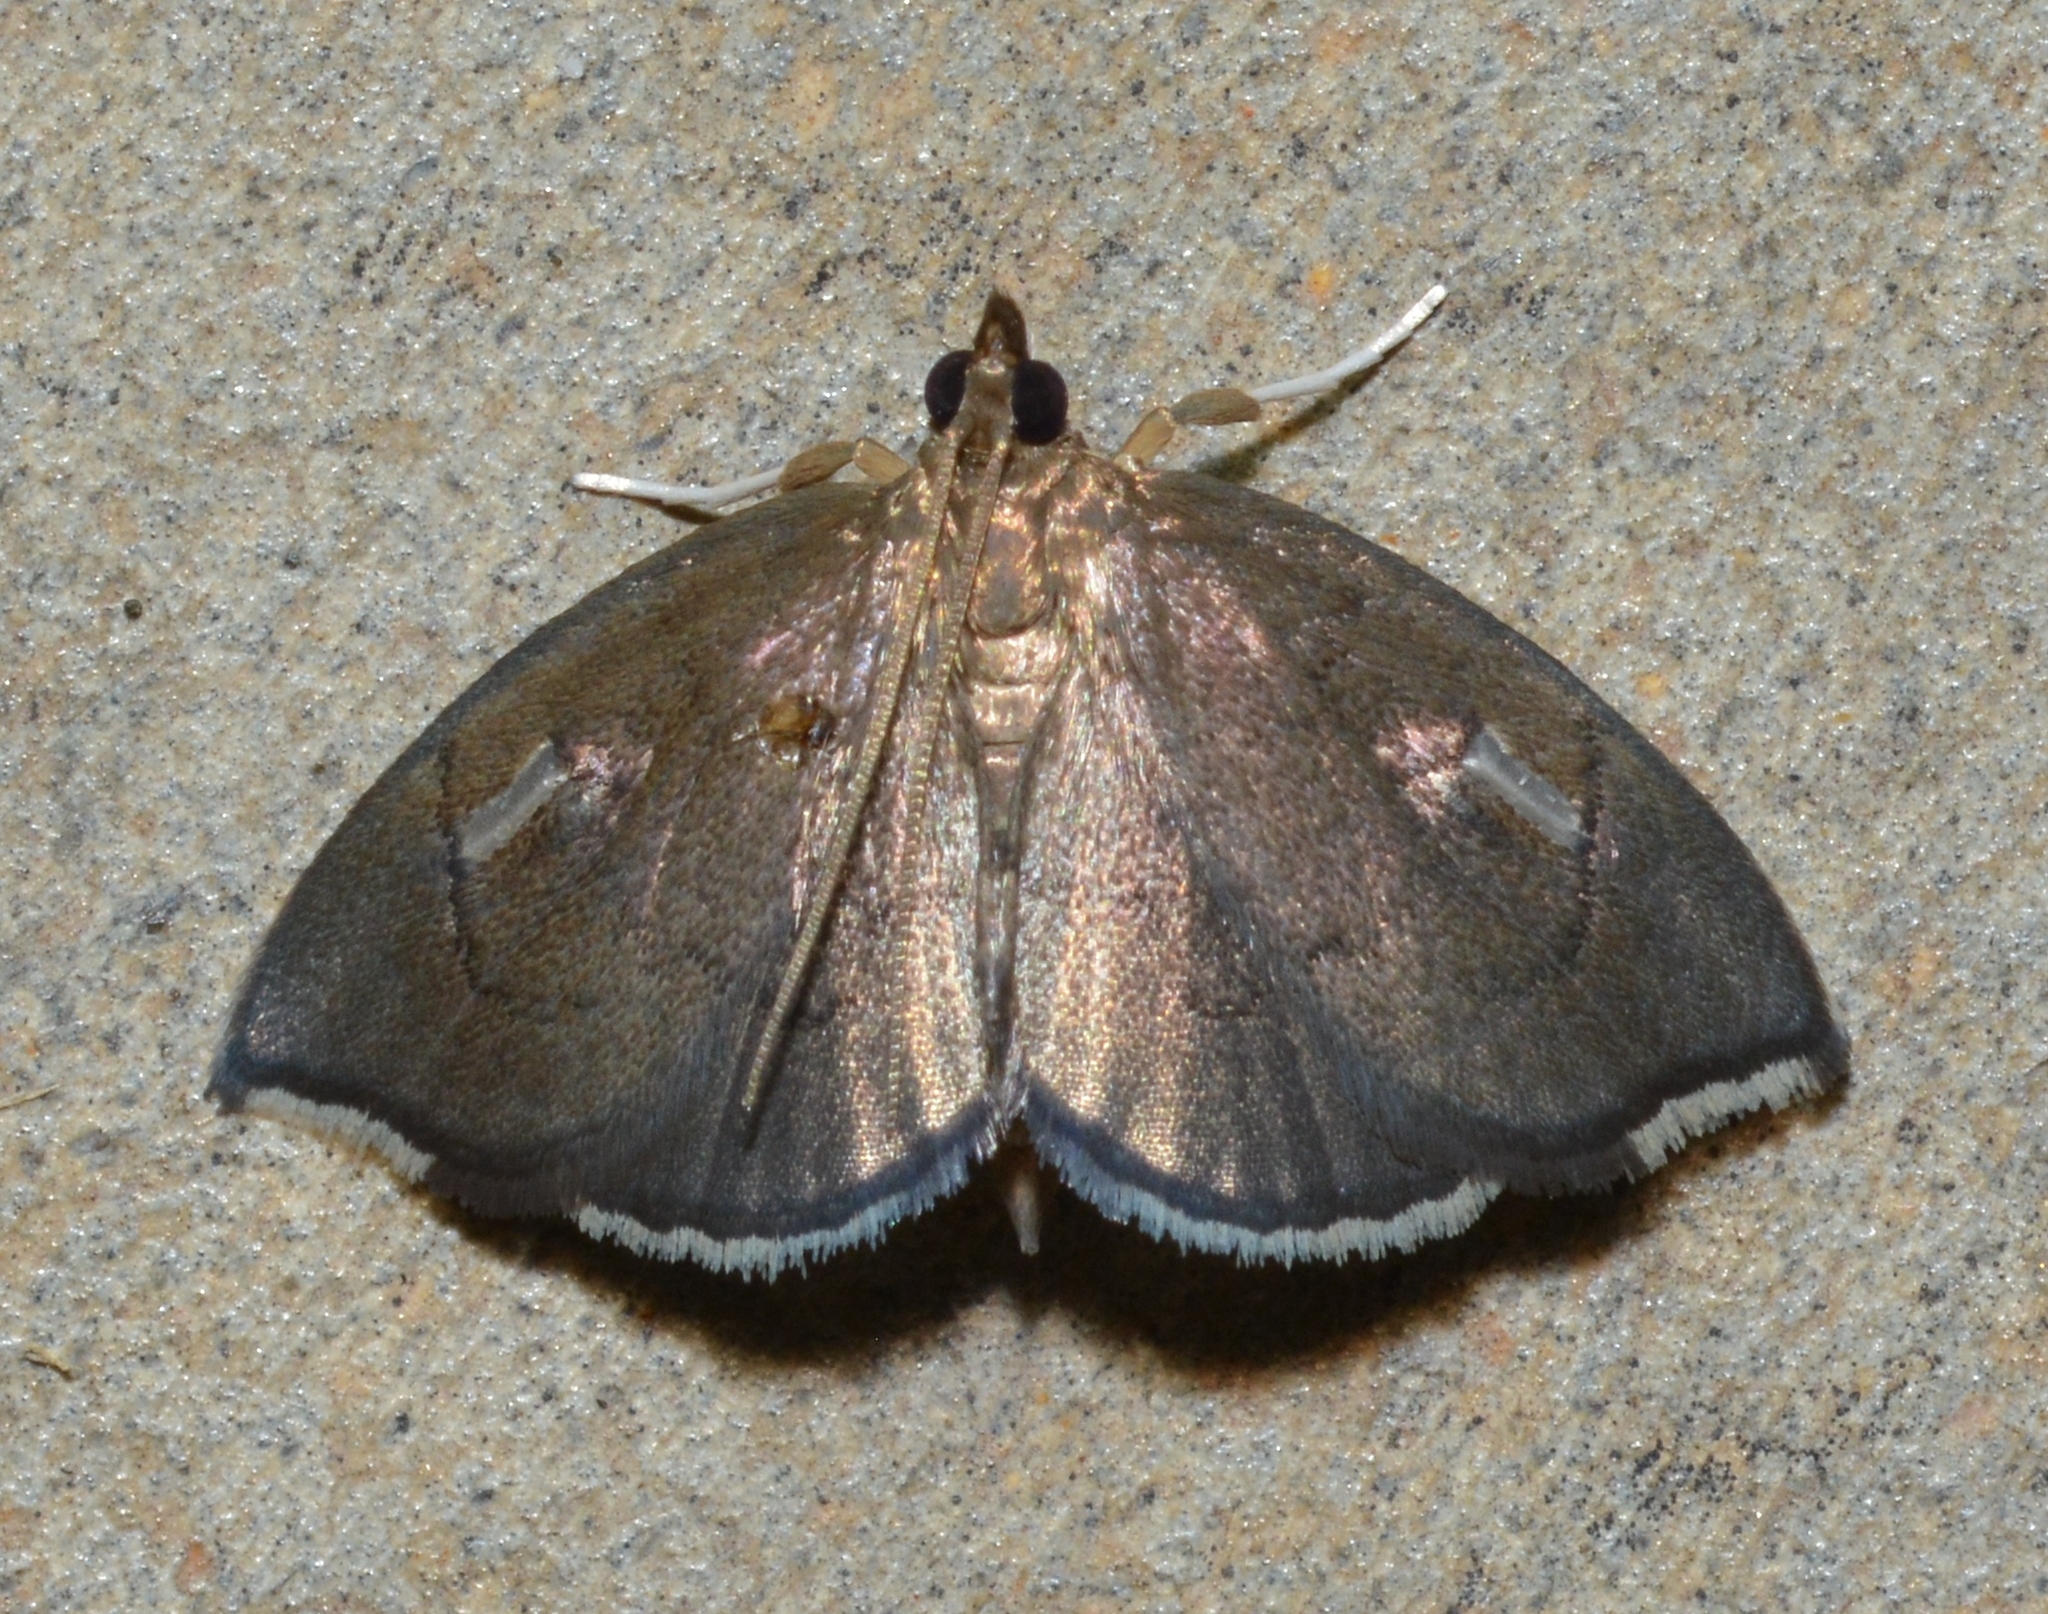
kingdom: Animalia
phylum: Arthropoda
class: Insecta
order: Lepidoptera
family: Crambidae
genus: Perispasta
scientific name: Perispasta caeculalis
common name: Titian peale's moth
